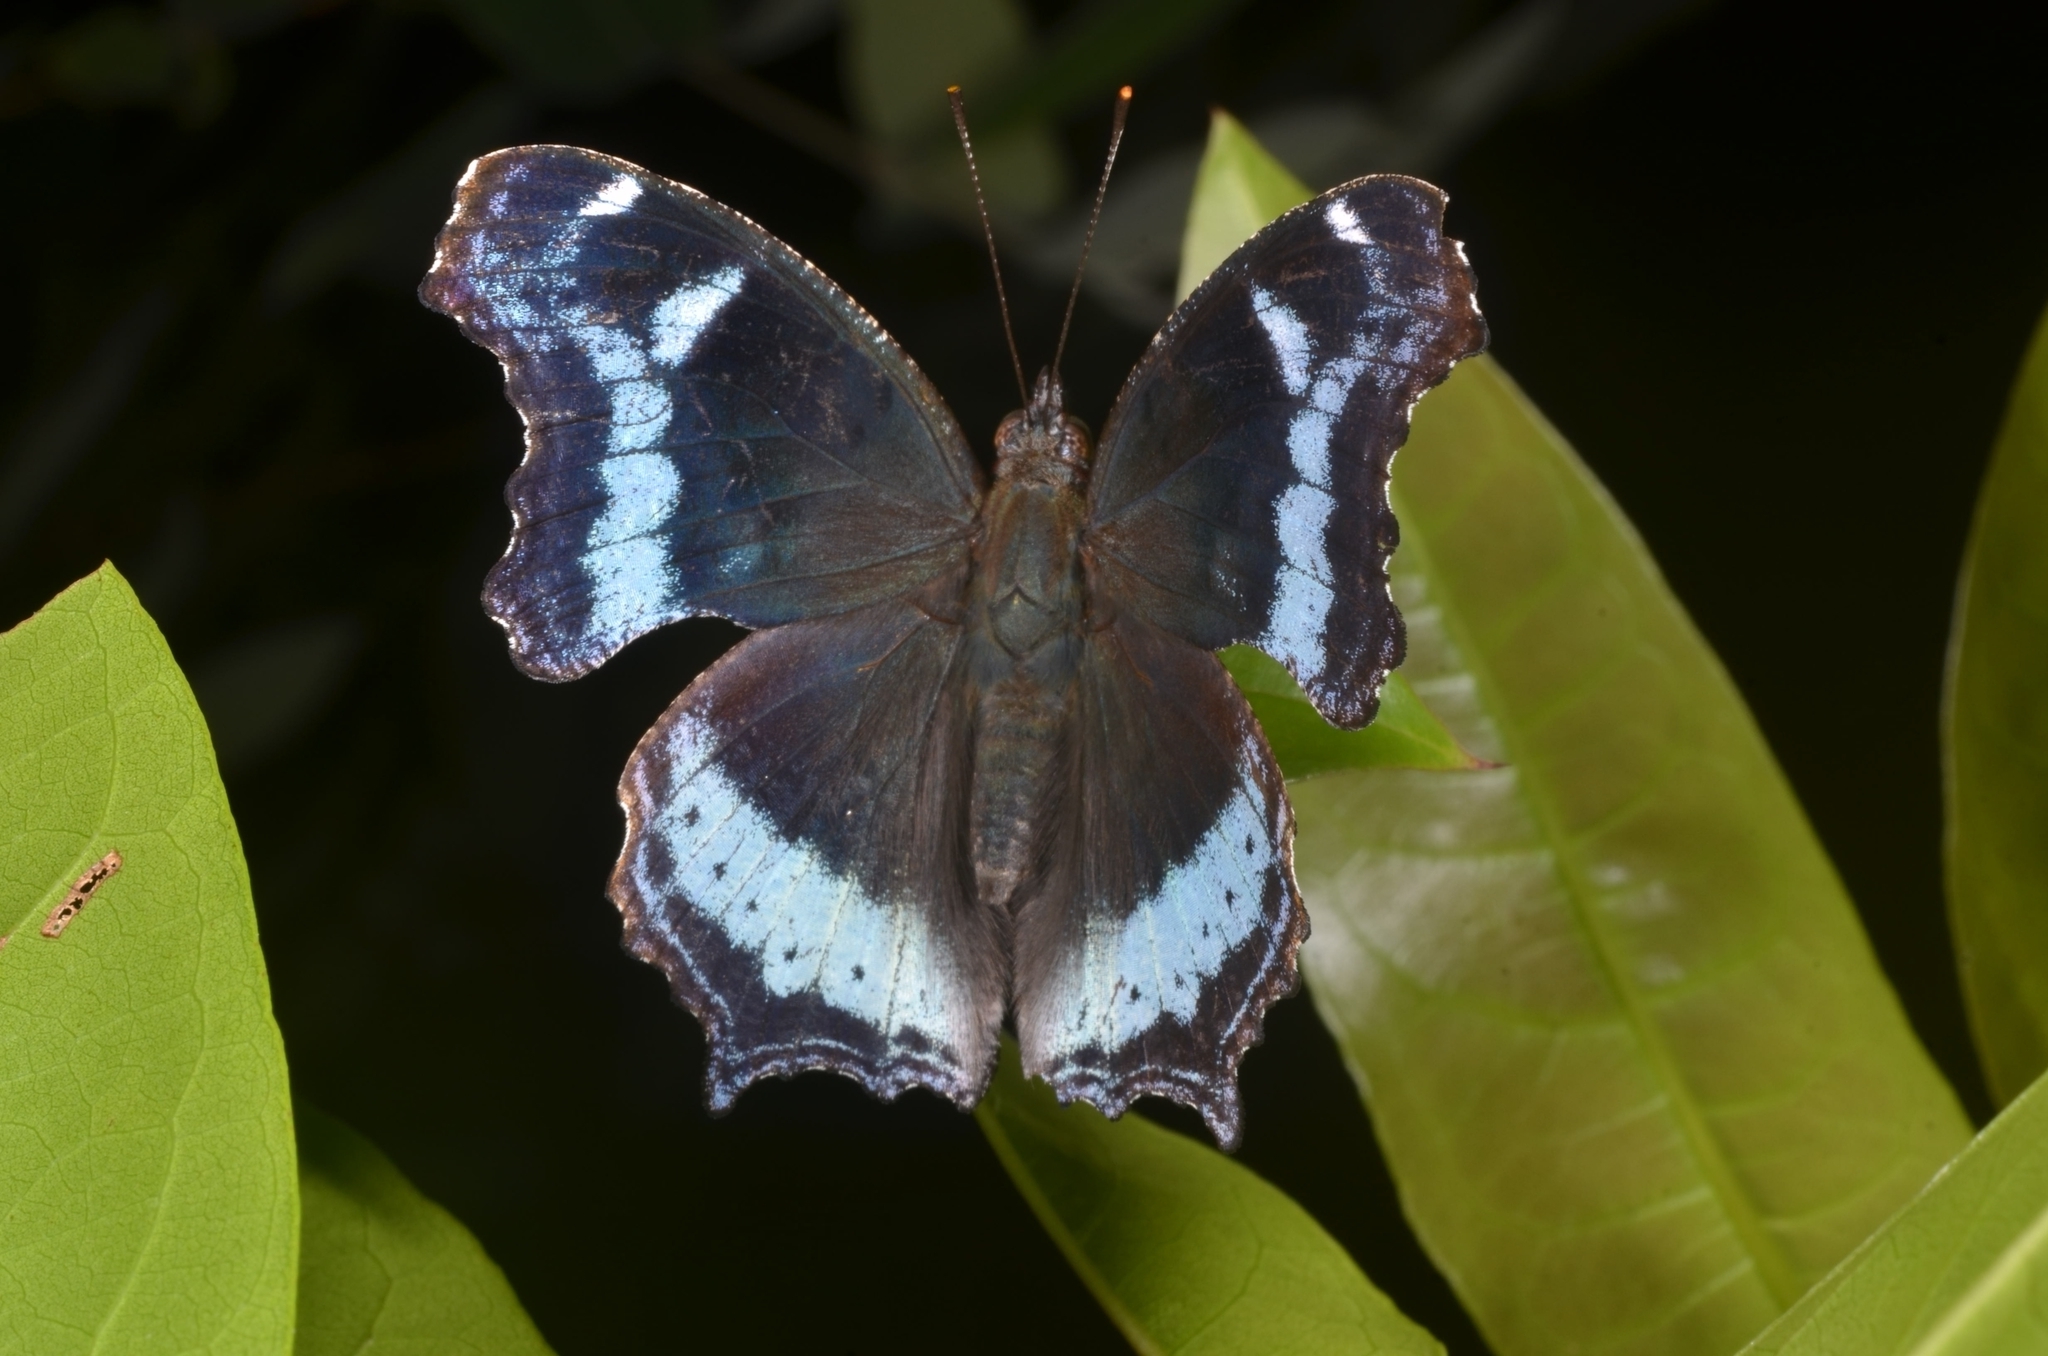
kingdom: Animalia
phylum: Arthropoda
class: Insecta
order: Lepidoptera
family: Nymphalidae
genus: Vanessa
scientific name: Vanessa Kaniska canace
